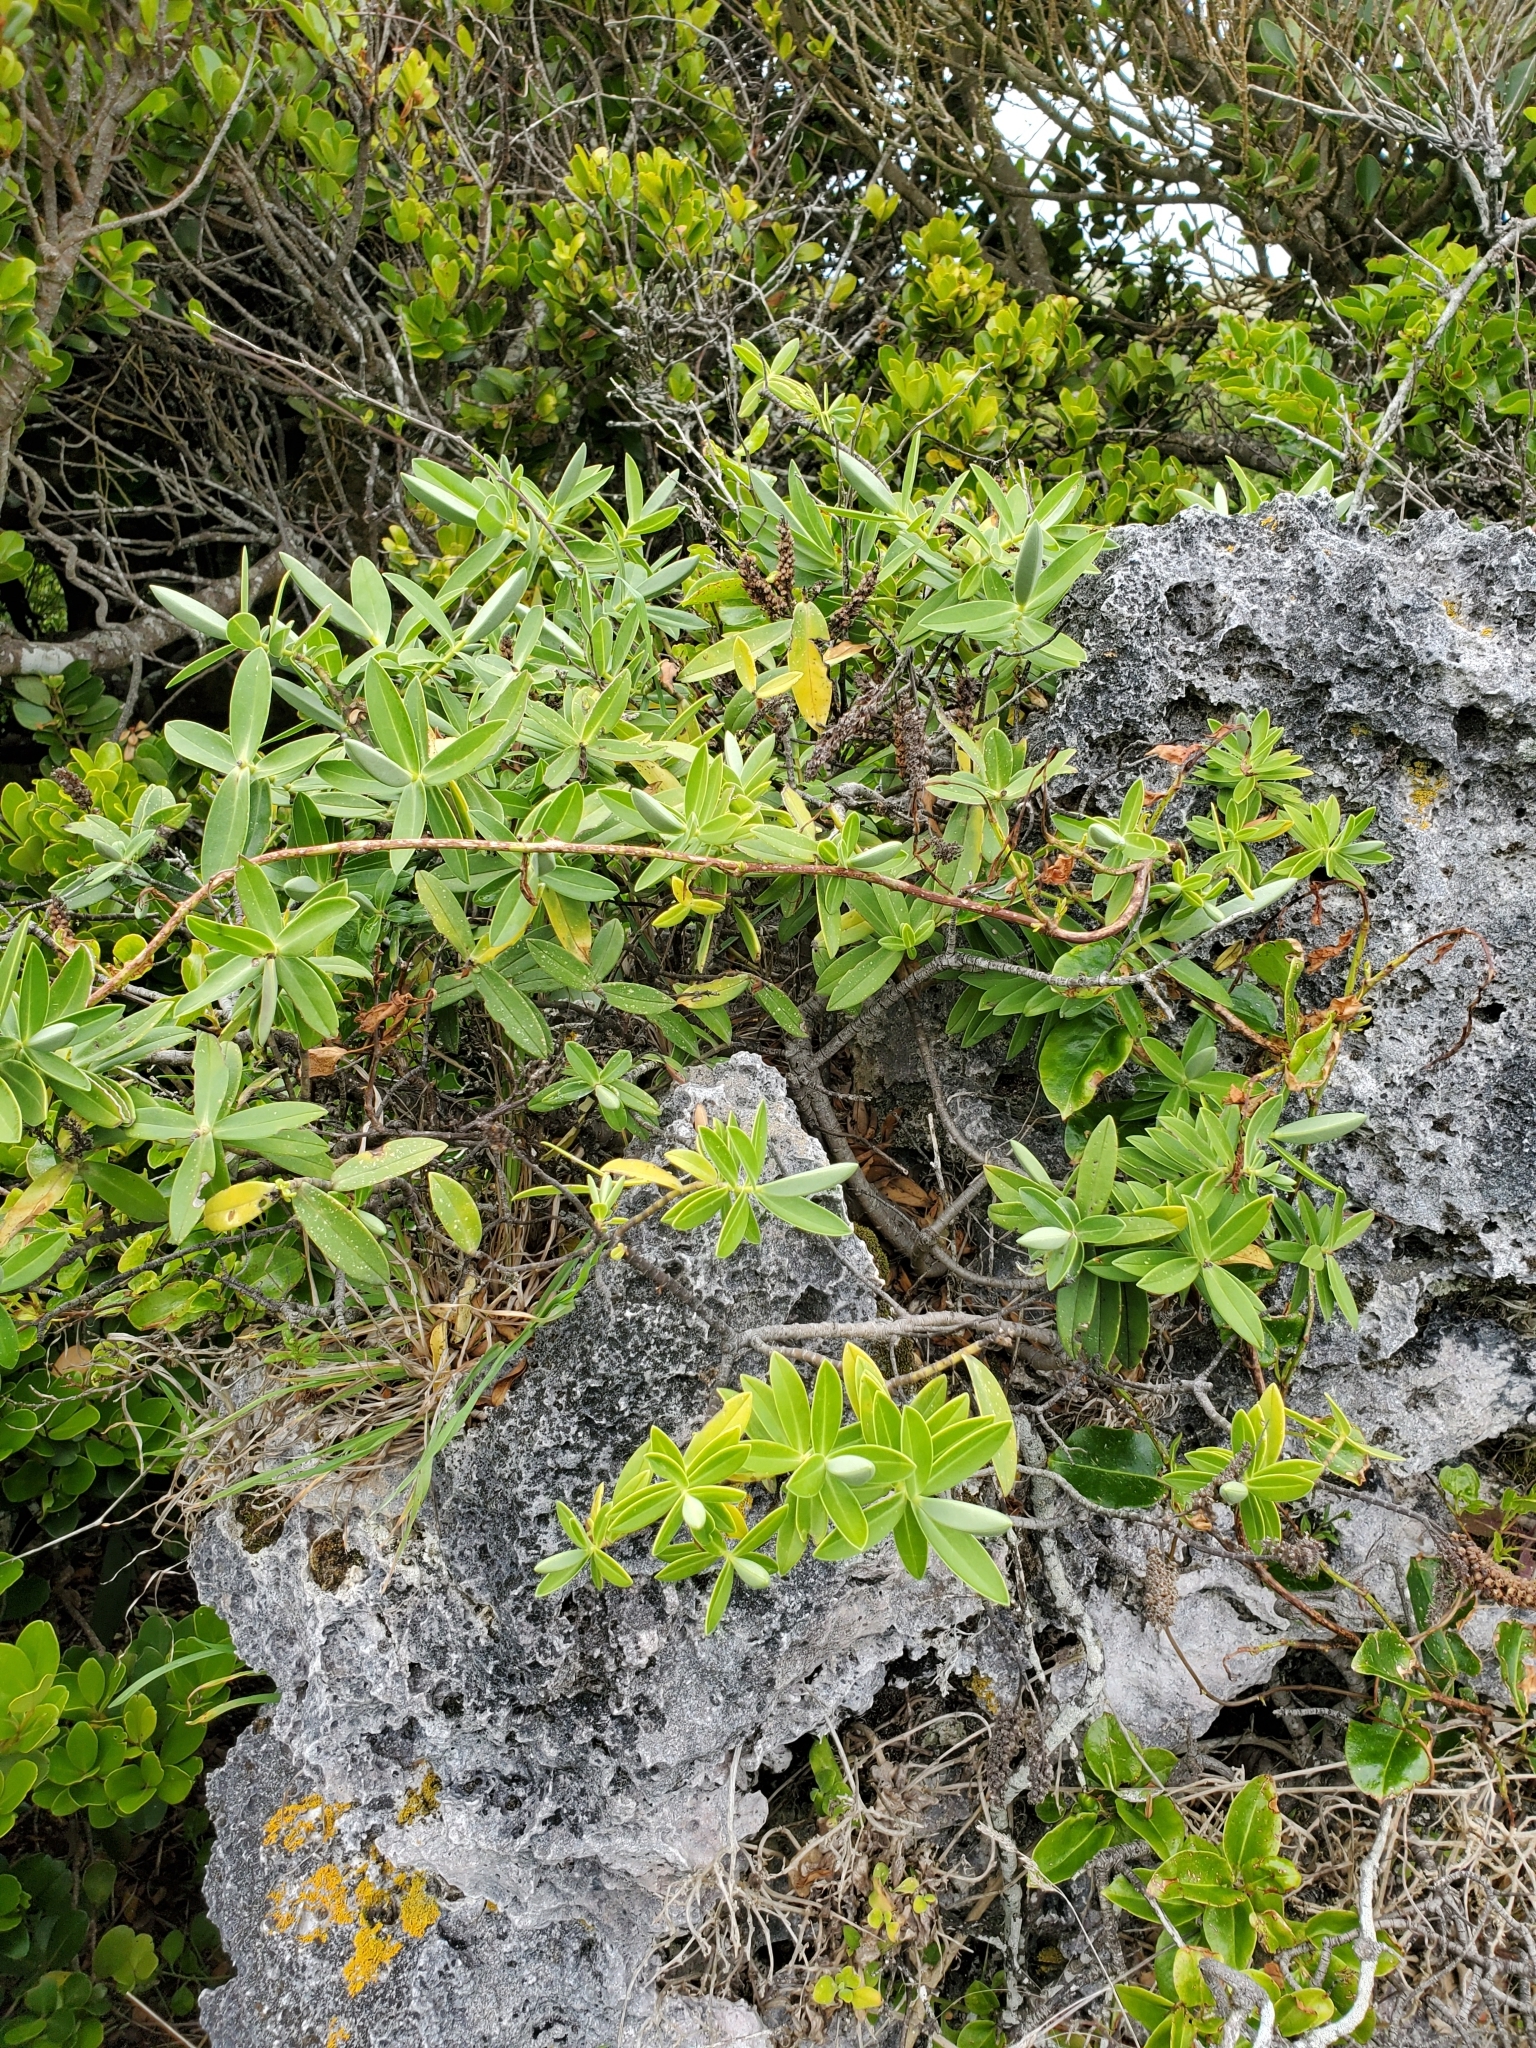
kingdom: Plantae
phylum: Tracheophyta
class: Magnoliopsida
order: Lamiales
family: Plantaginaceae
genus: Veronica
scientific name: Veronica chathamica
